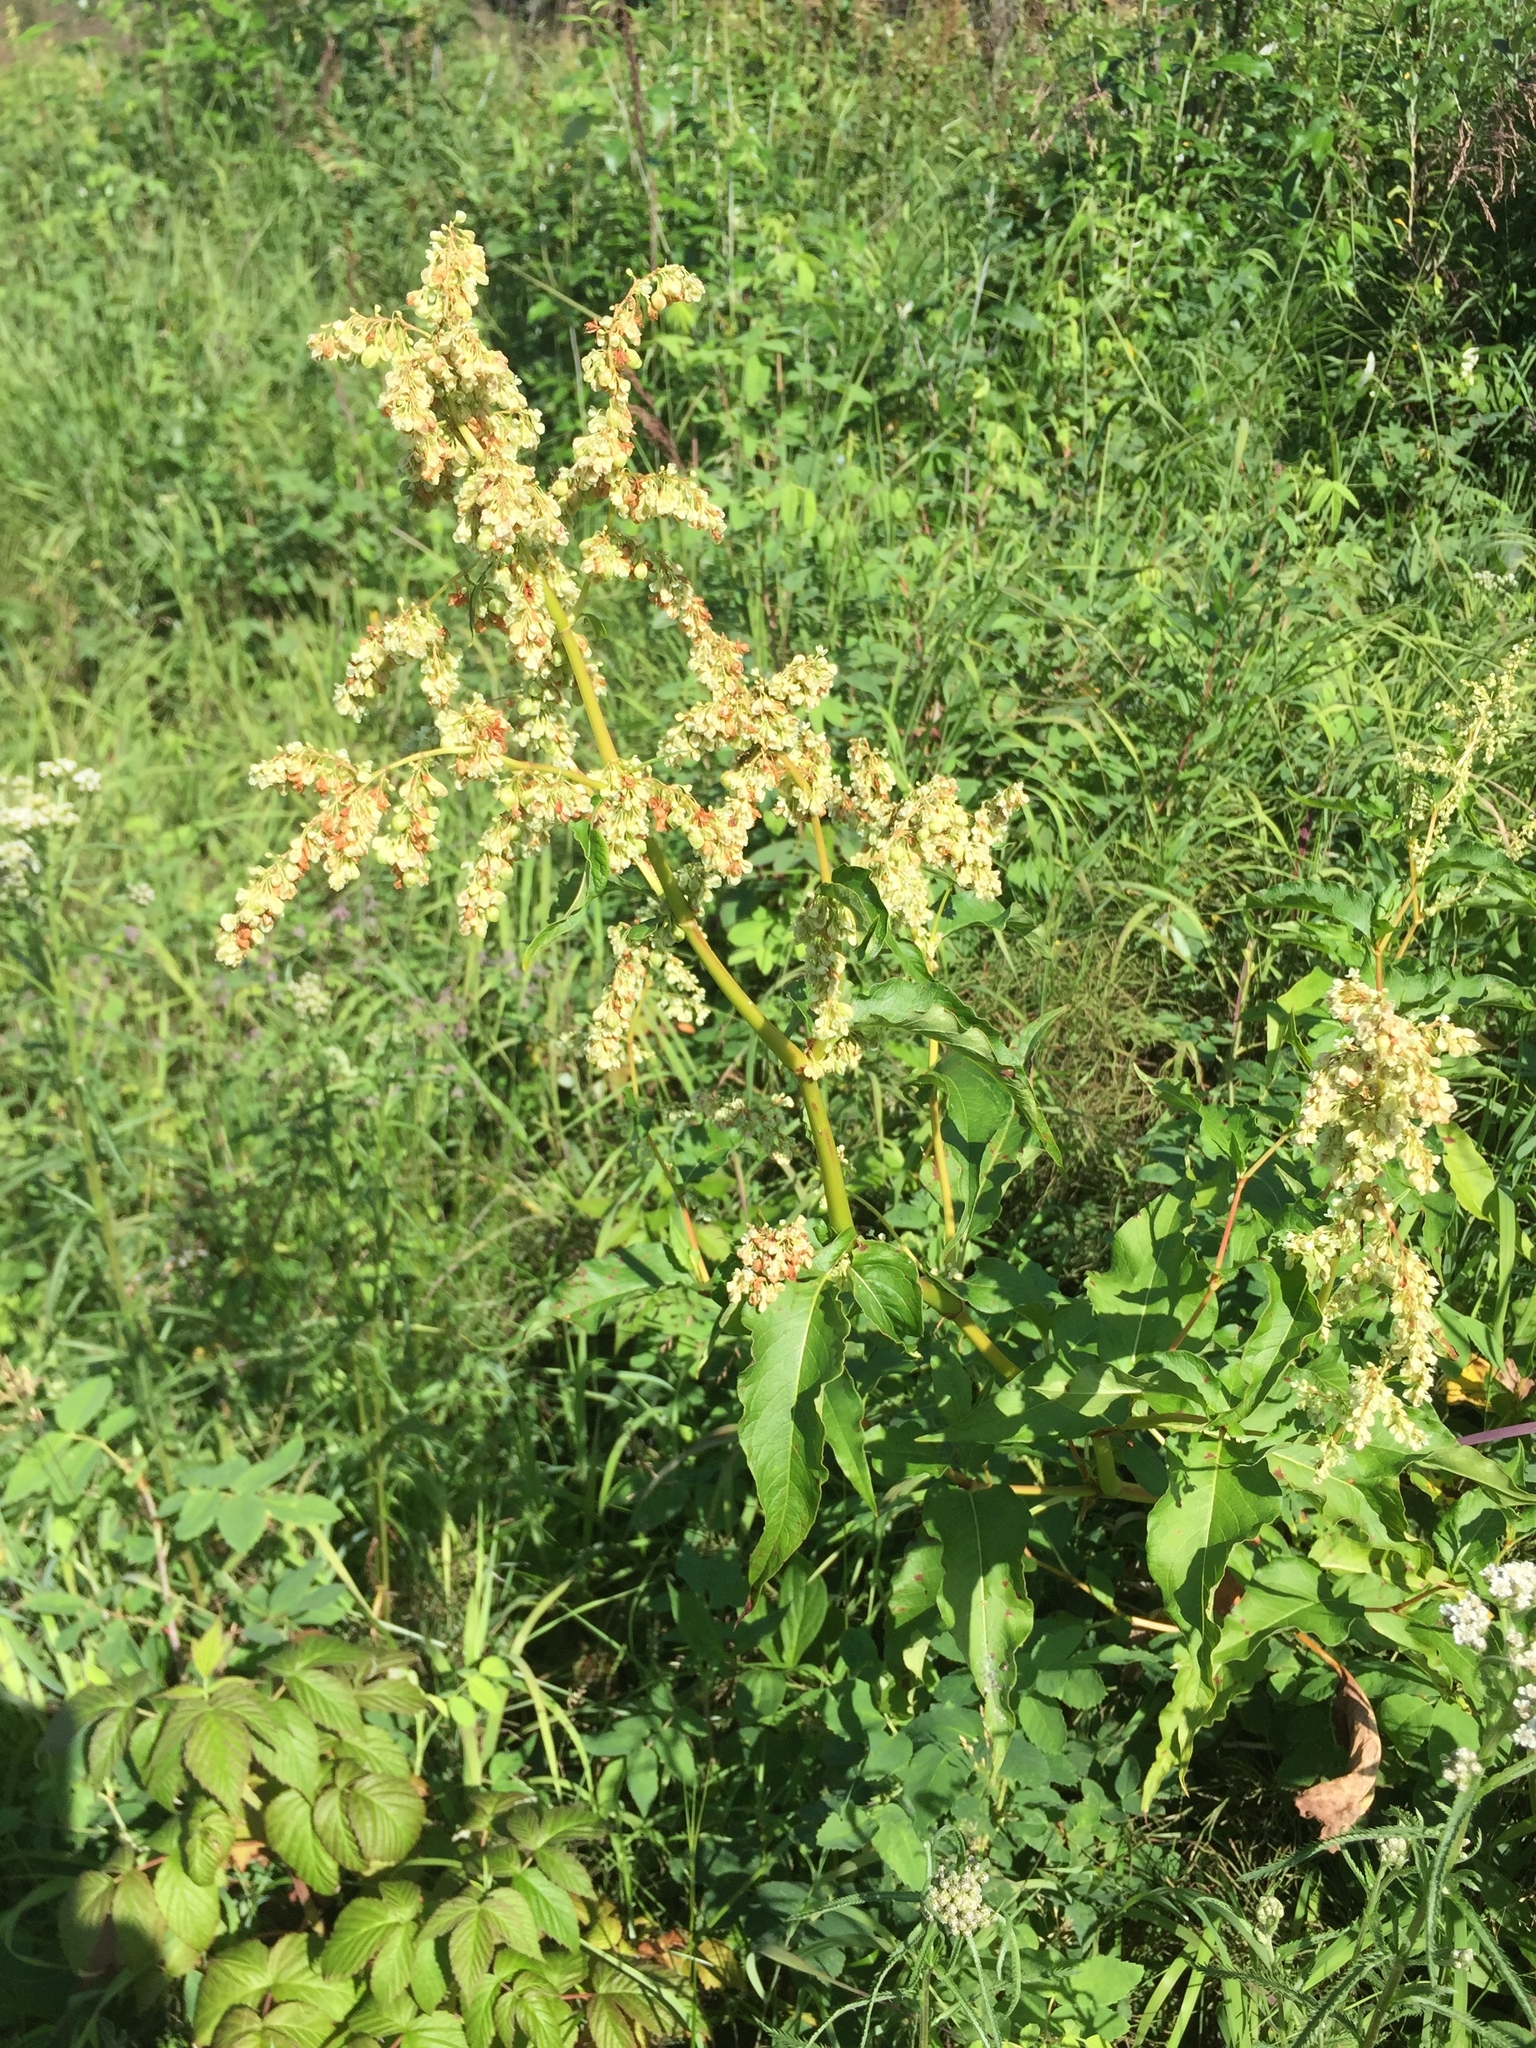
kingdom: Plantae
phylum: Tracheophyta
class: Magnoliopsida
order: Caryophyllales
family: Polygonaceae
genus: Koenigia
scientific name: Koenigia lapathifolia
